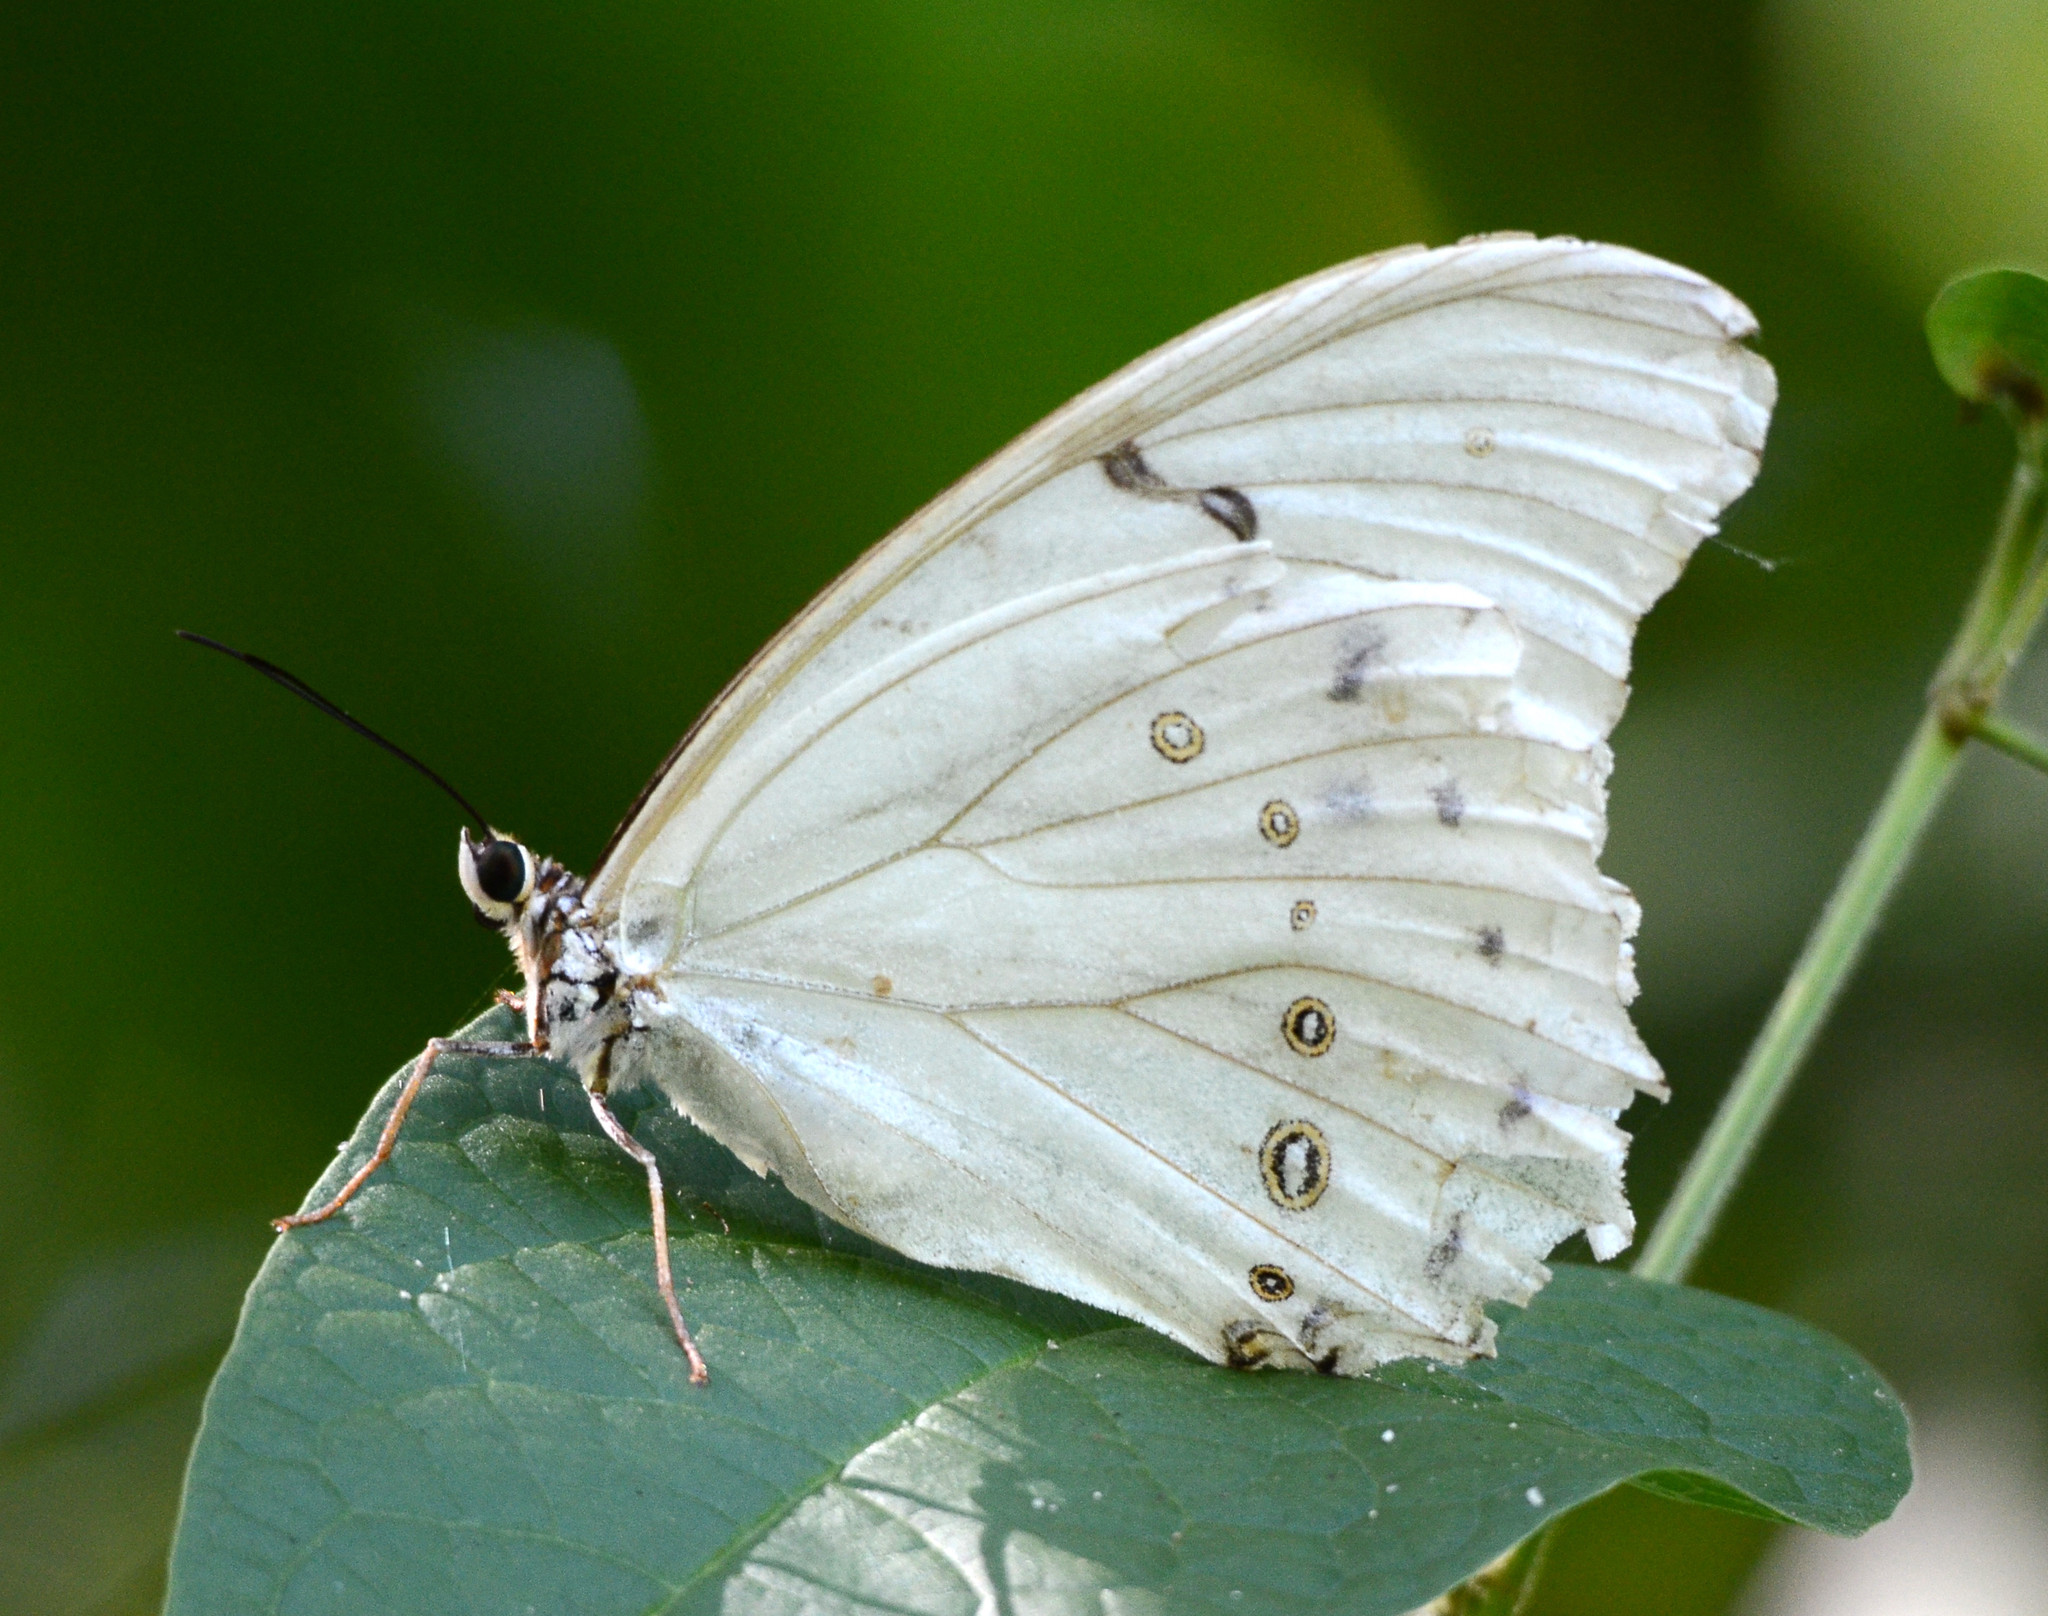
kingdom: Animalia
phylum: Arthropoda
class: Insecta
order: Lepidoptera
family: Nymphalidae
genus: Morpho
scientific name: Morpho polyphemus
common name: White morpho
